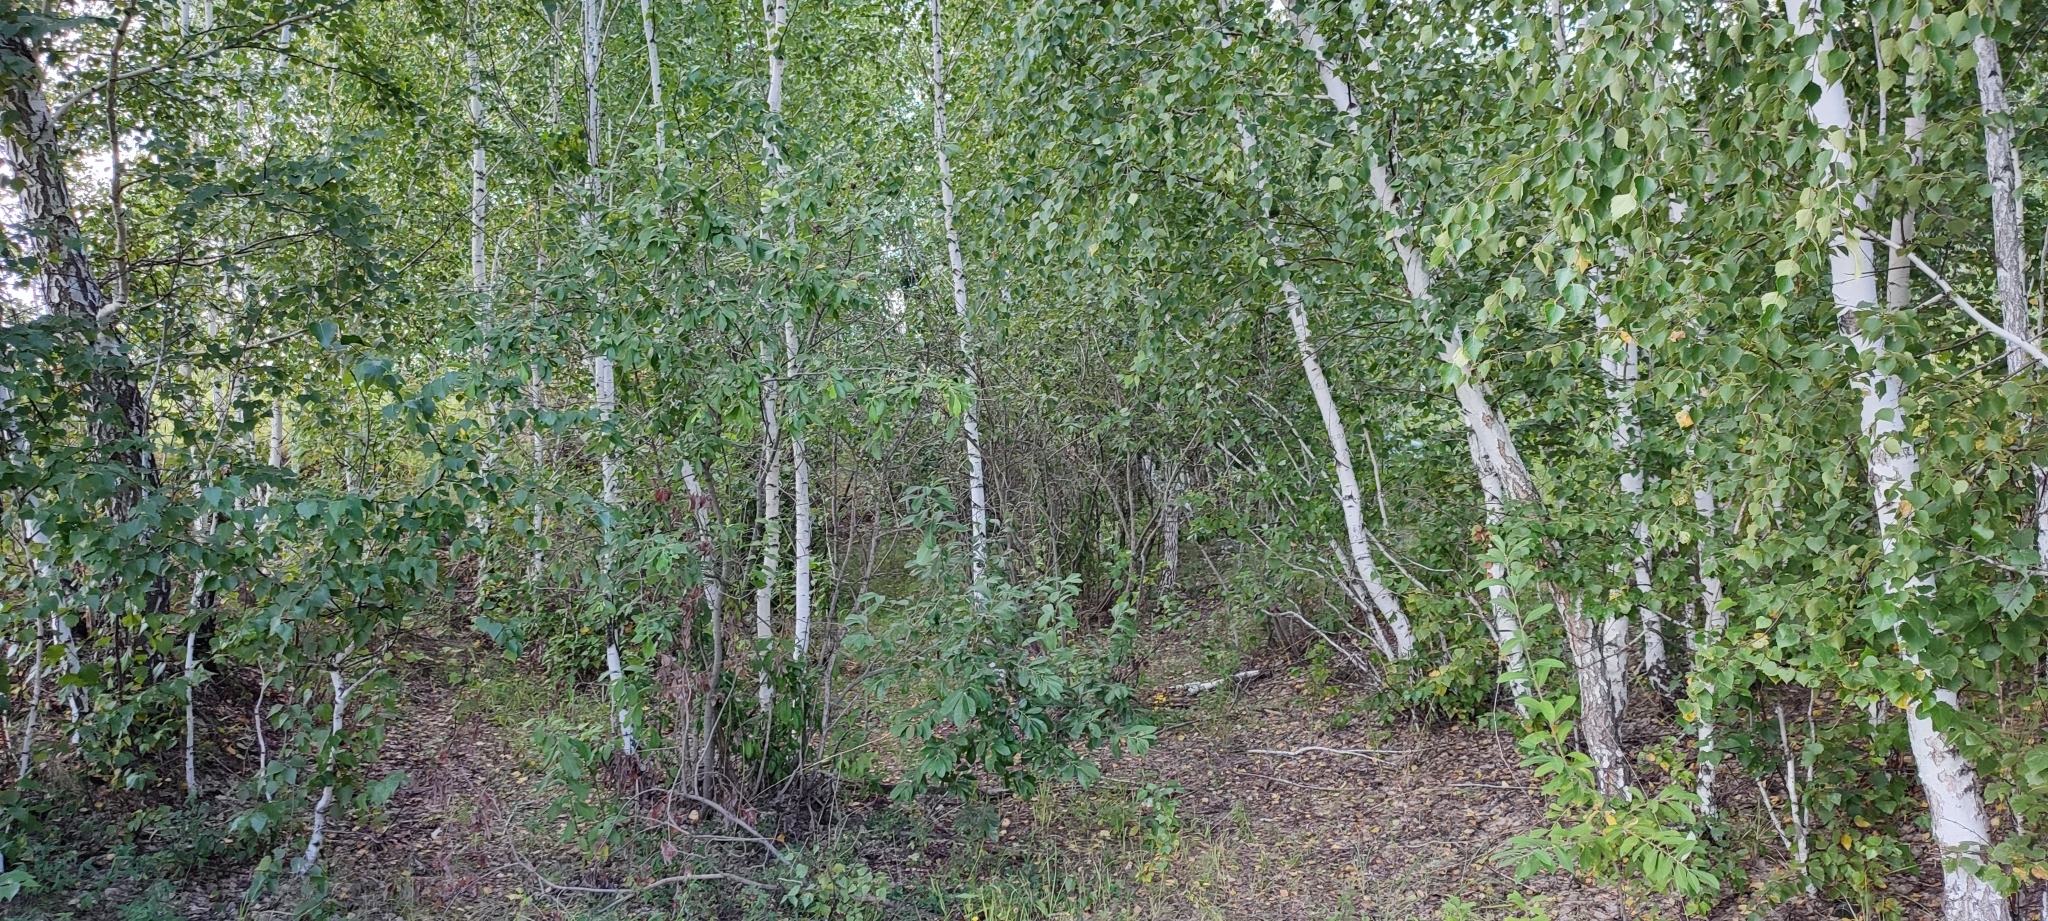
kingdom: Plantae
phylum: Tracheophyta
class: Magnoliopsida
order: Fagales
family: Betulaceae
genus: Betula
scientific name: Betula pendula
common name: Silver birch
